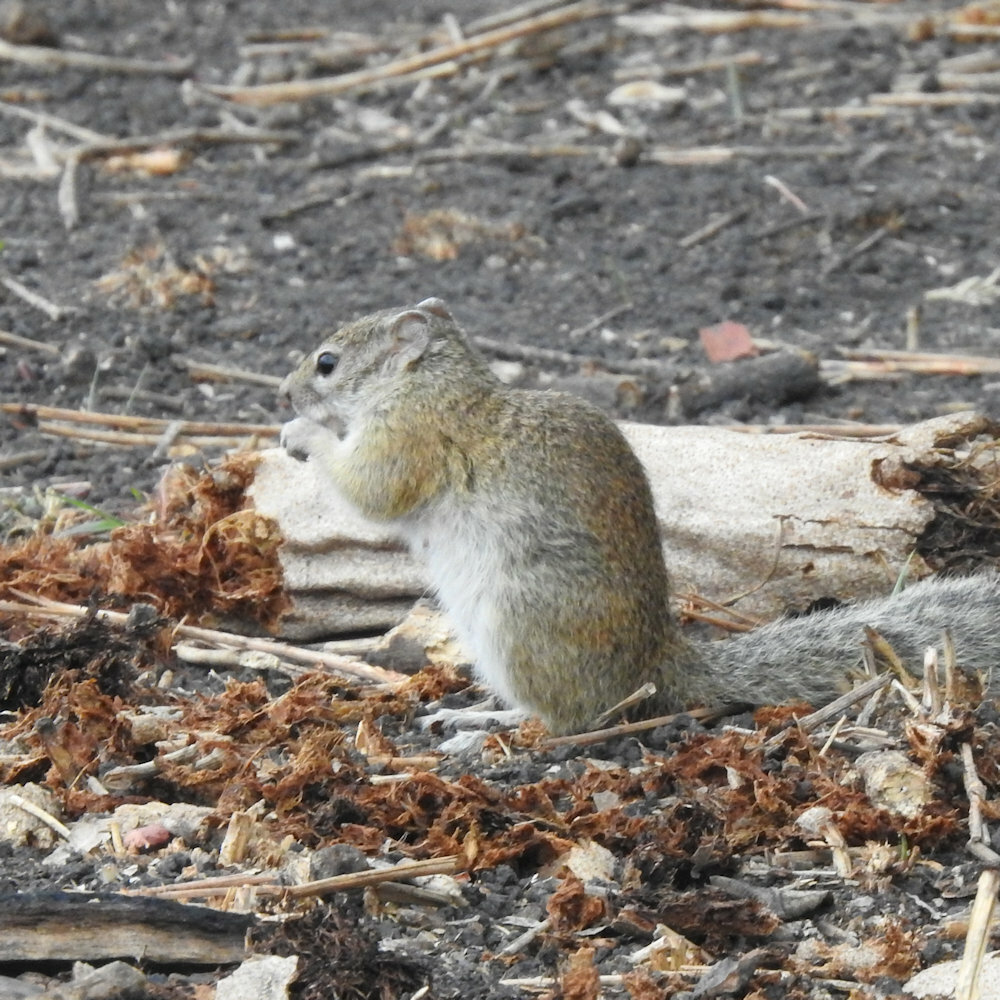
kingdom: Animalia
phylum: Chordata
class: Mammalia
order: Rodentia
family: Sciuridae
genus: Paraxerus
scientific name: Paraxerus cepapi
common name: Smith's bush squirrel
